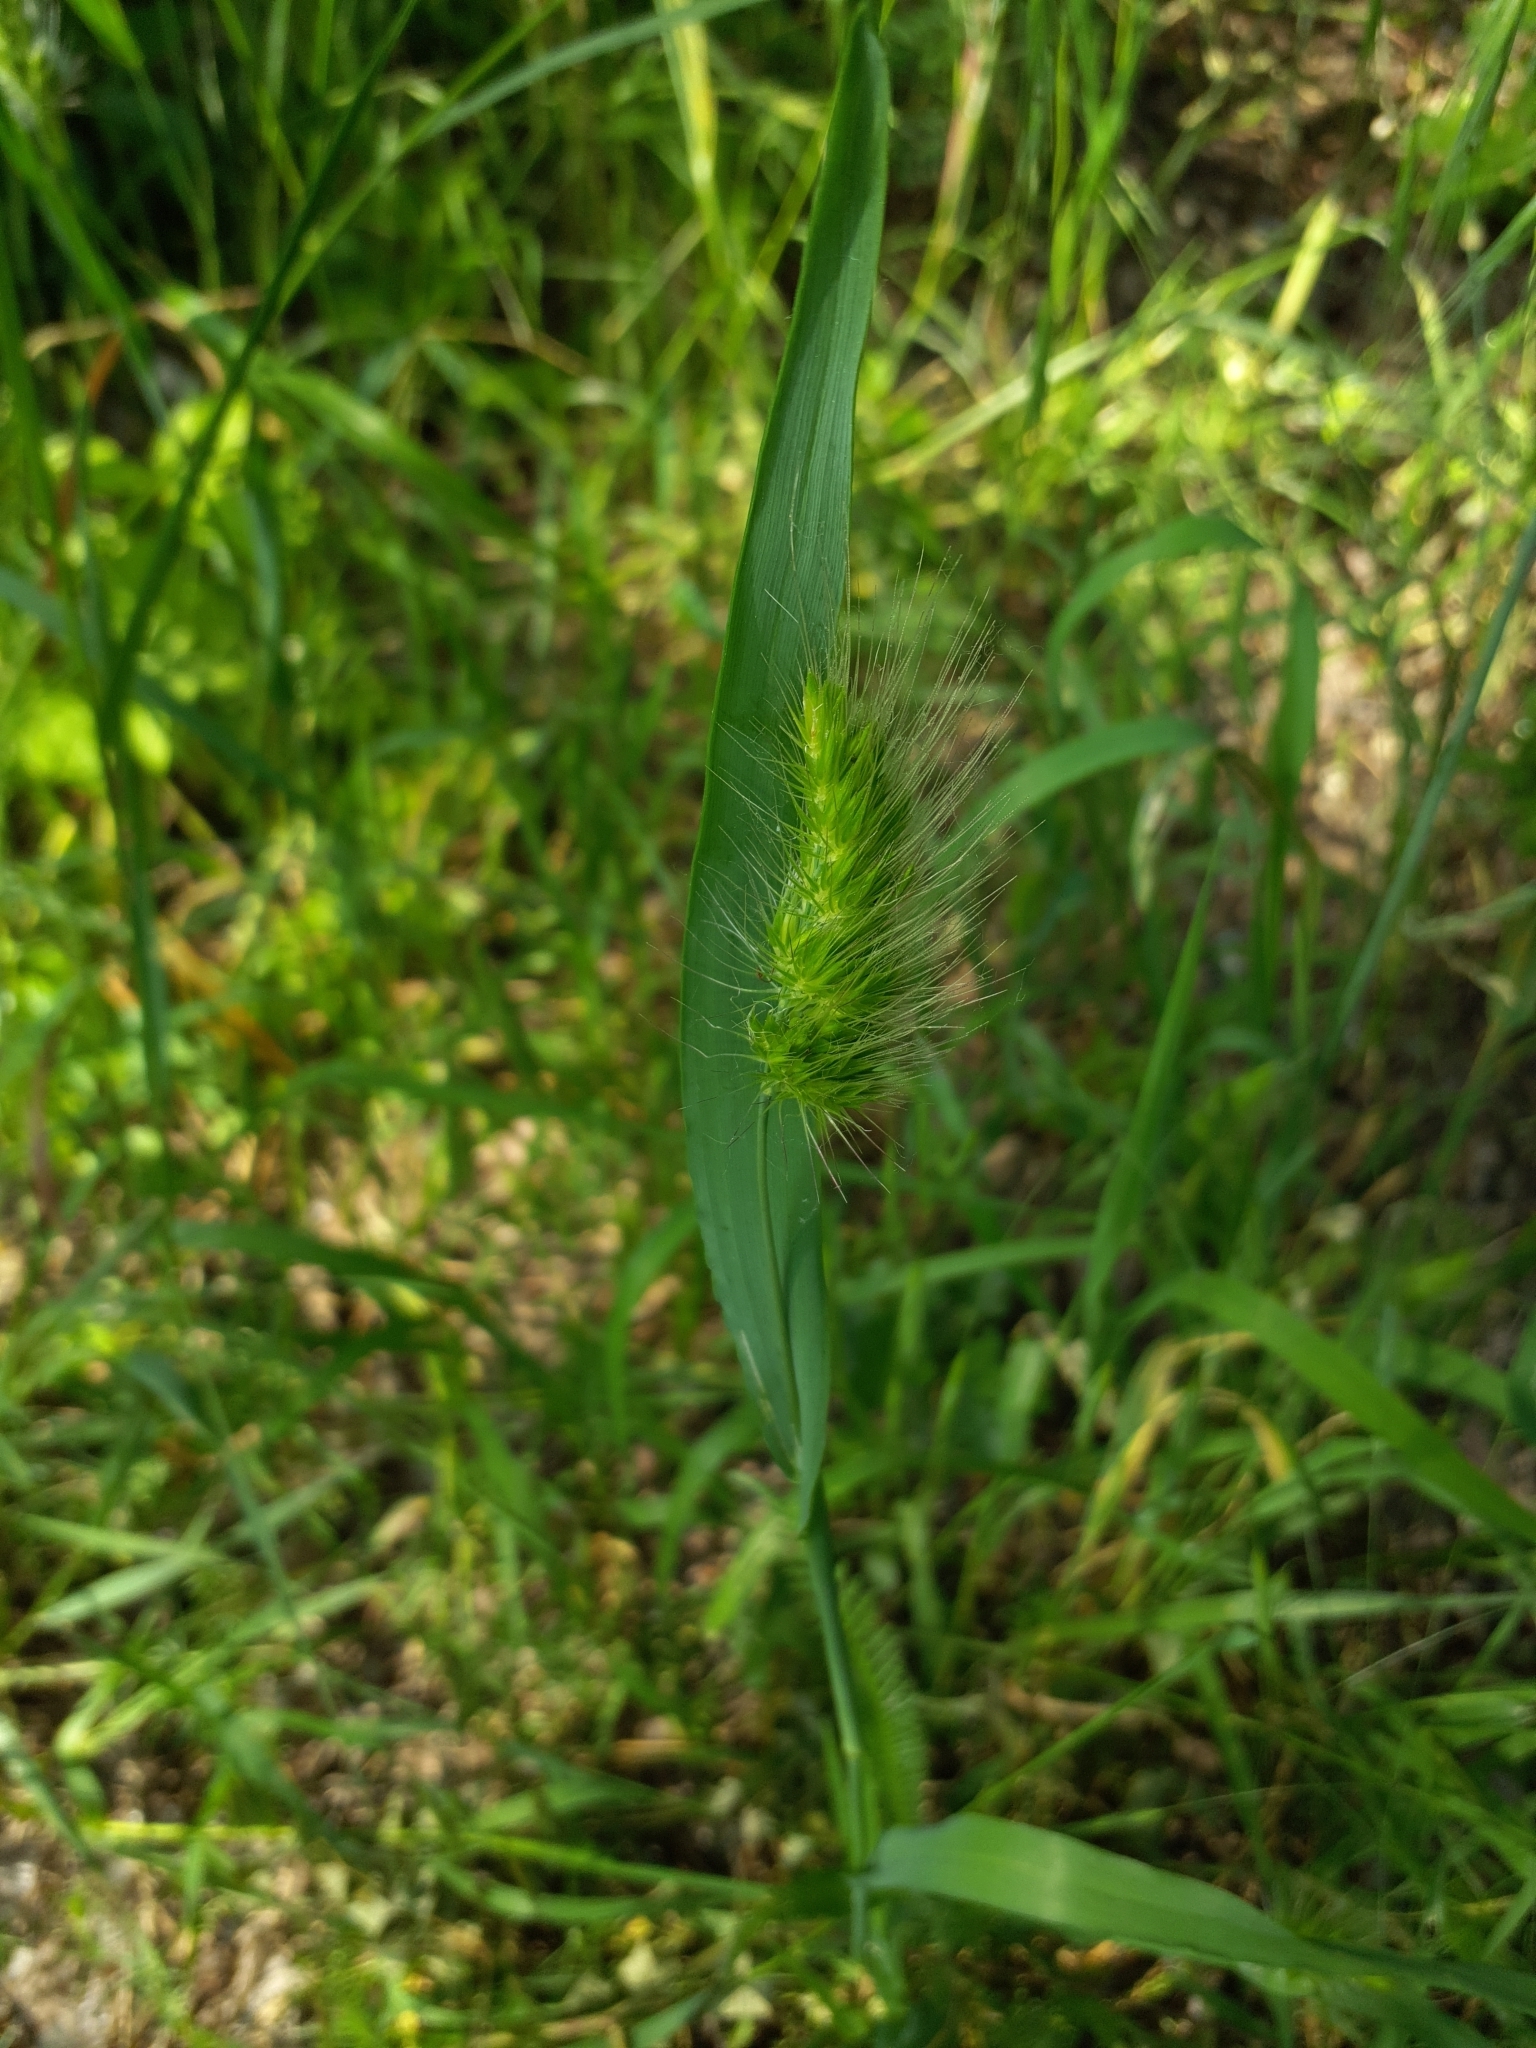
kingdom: Plantae
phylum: Tracheophyta
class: Liliopsida
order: Poales
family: Poaceae
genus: Cynosurus
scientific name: Cynosurus echinatus
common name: Rough dog's-tail
